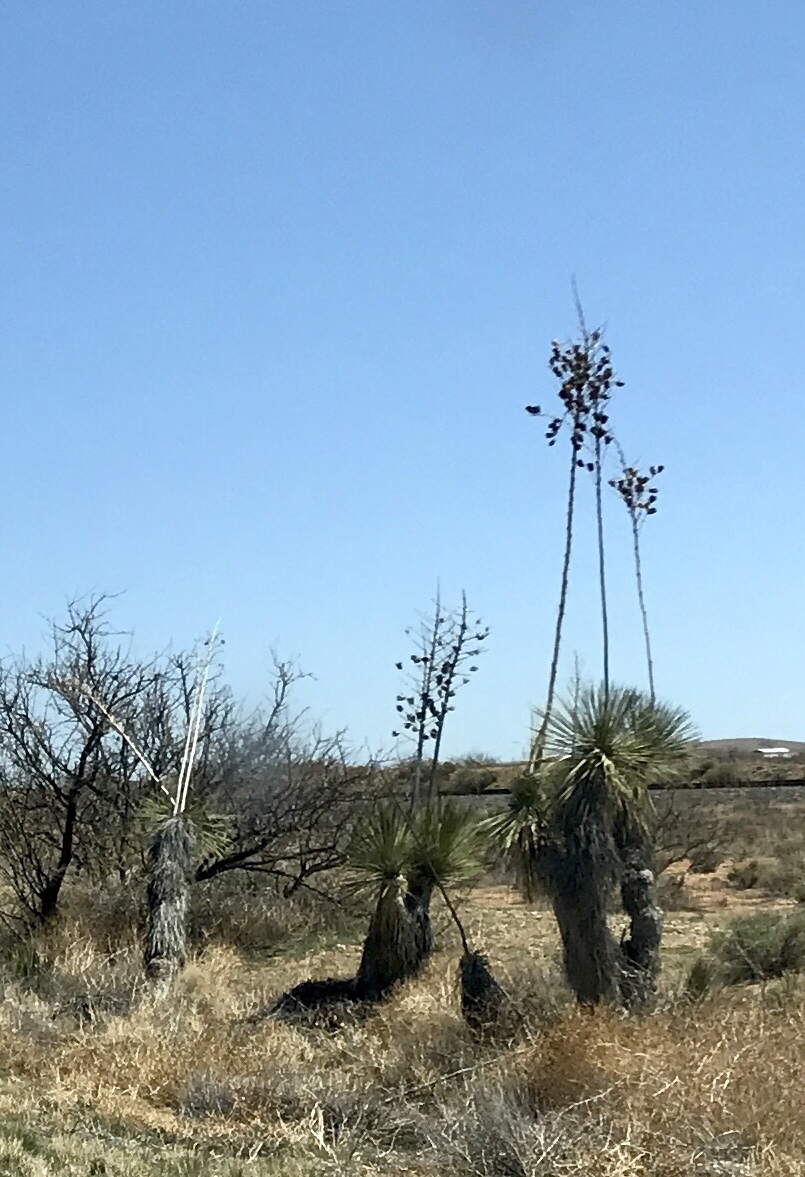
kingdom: Plantae
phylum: Tracheophyta
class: Liliopsida
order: Asparagales
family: Asparagaceae
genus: Yucca
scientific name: Yucca elata
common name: Palmella
